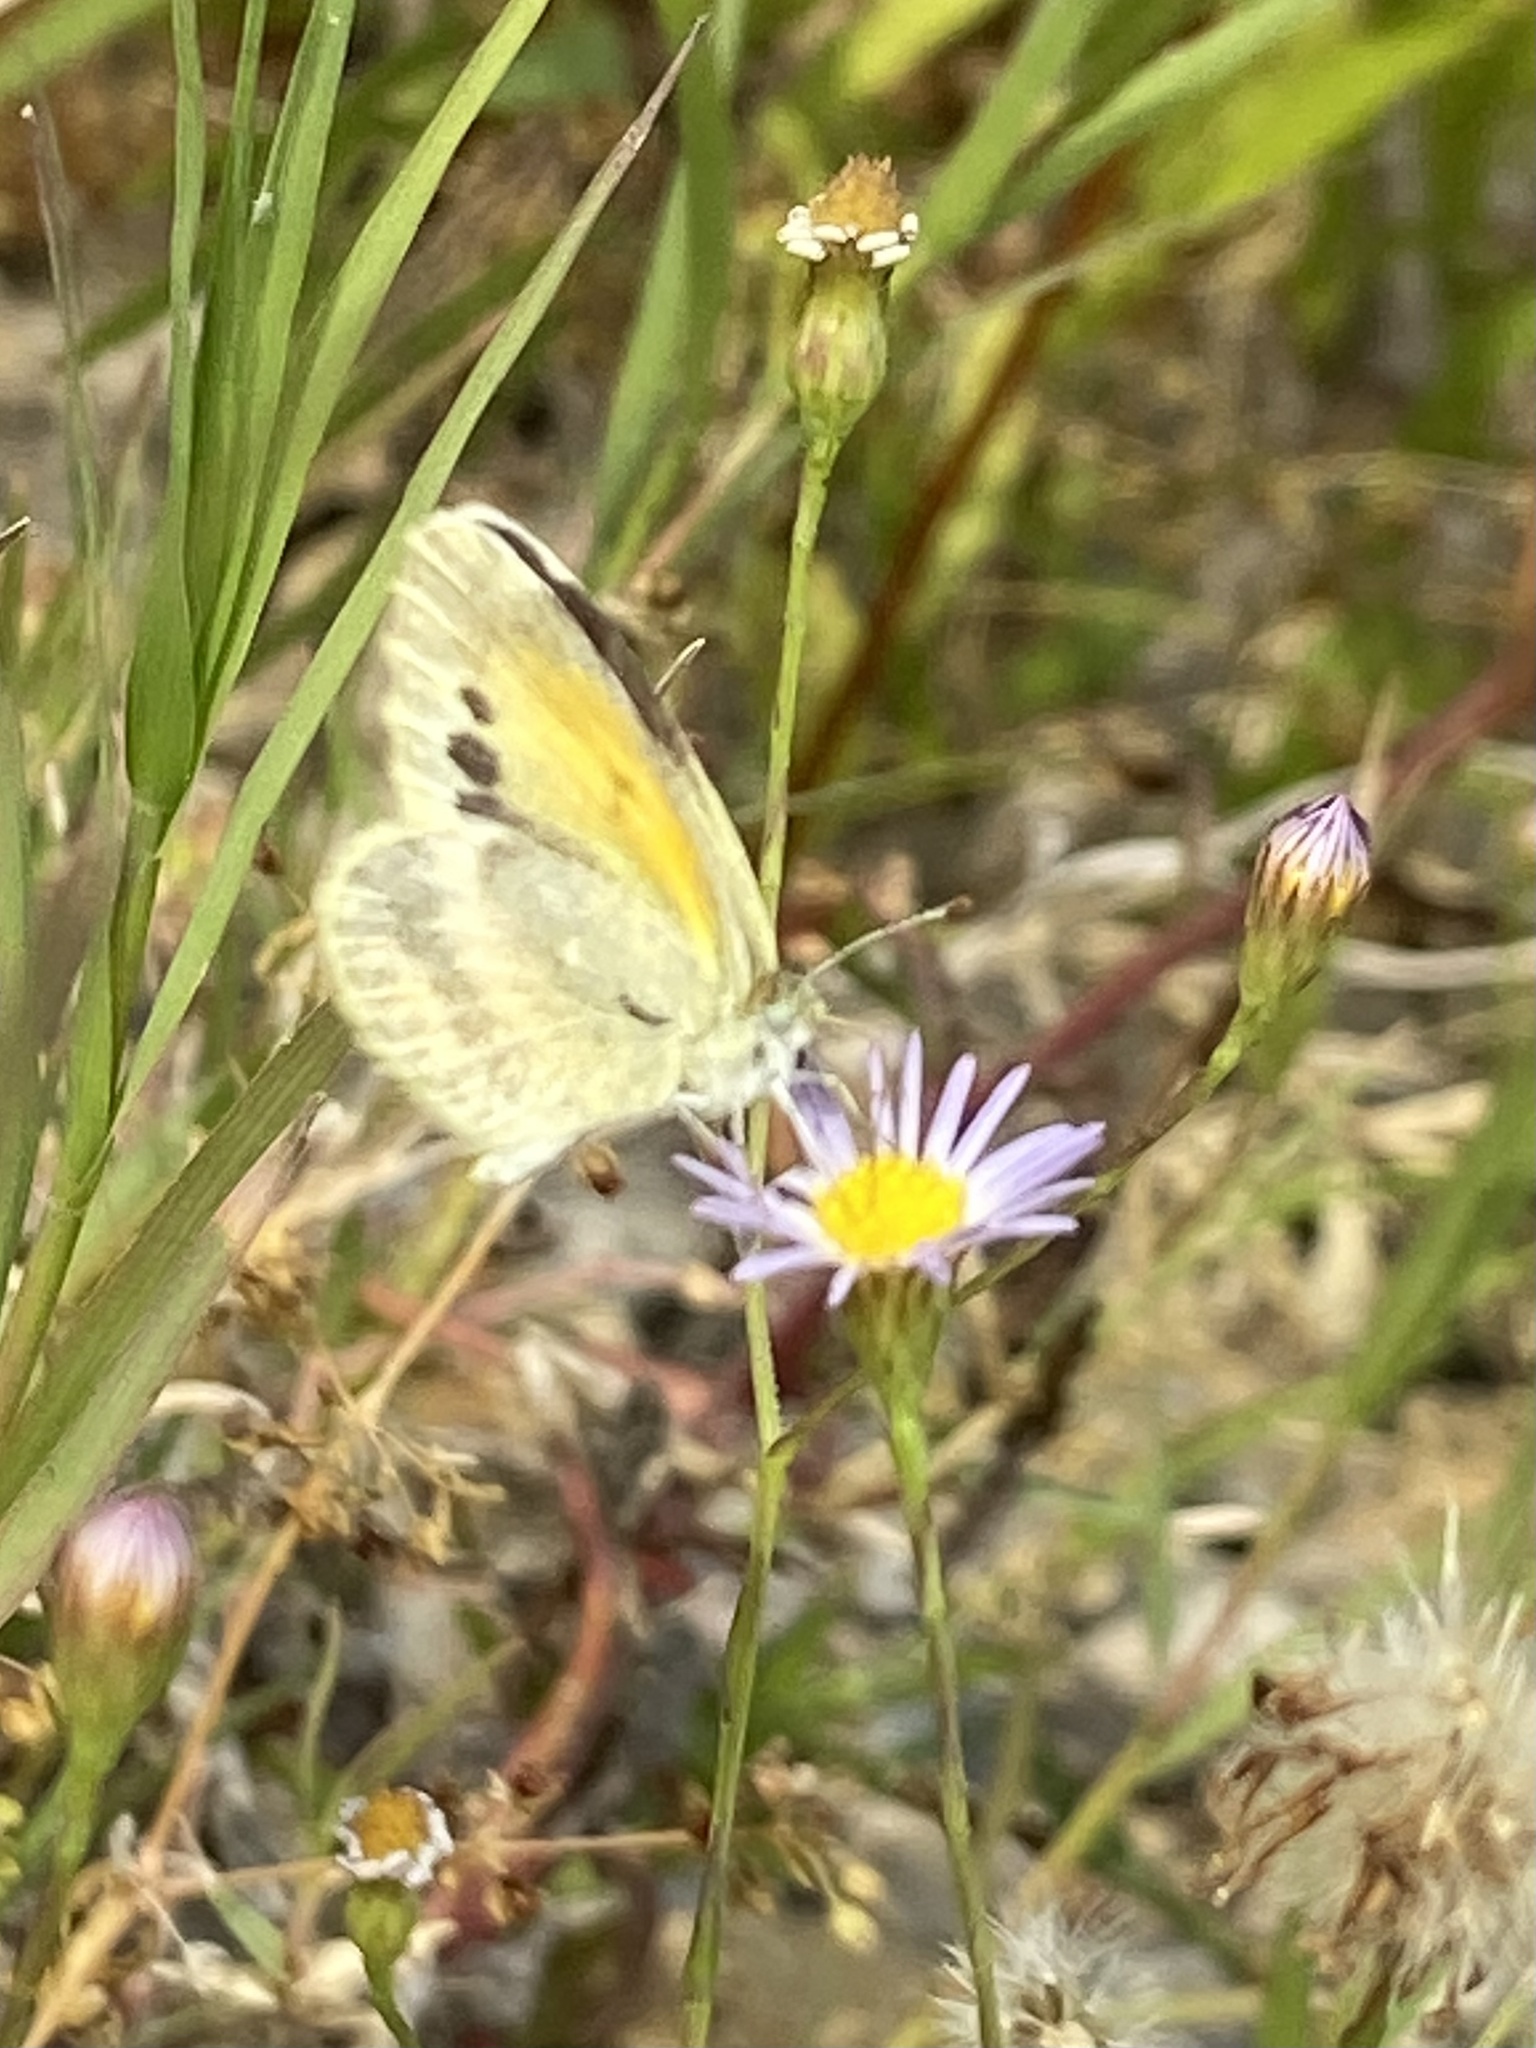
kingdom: Animalia
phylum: Arthropoda
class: Insecta
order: Lepidoptera
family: Pieridae
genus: Nathalis
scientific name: Nathalis iole
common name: Dainty sulphur
